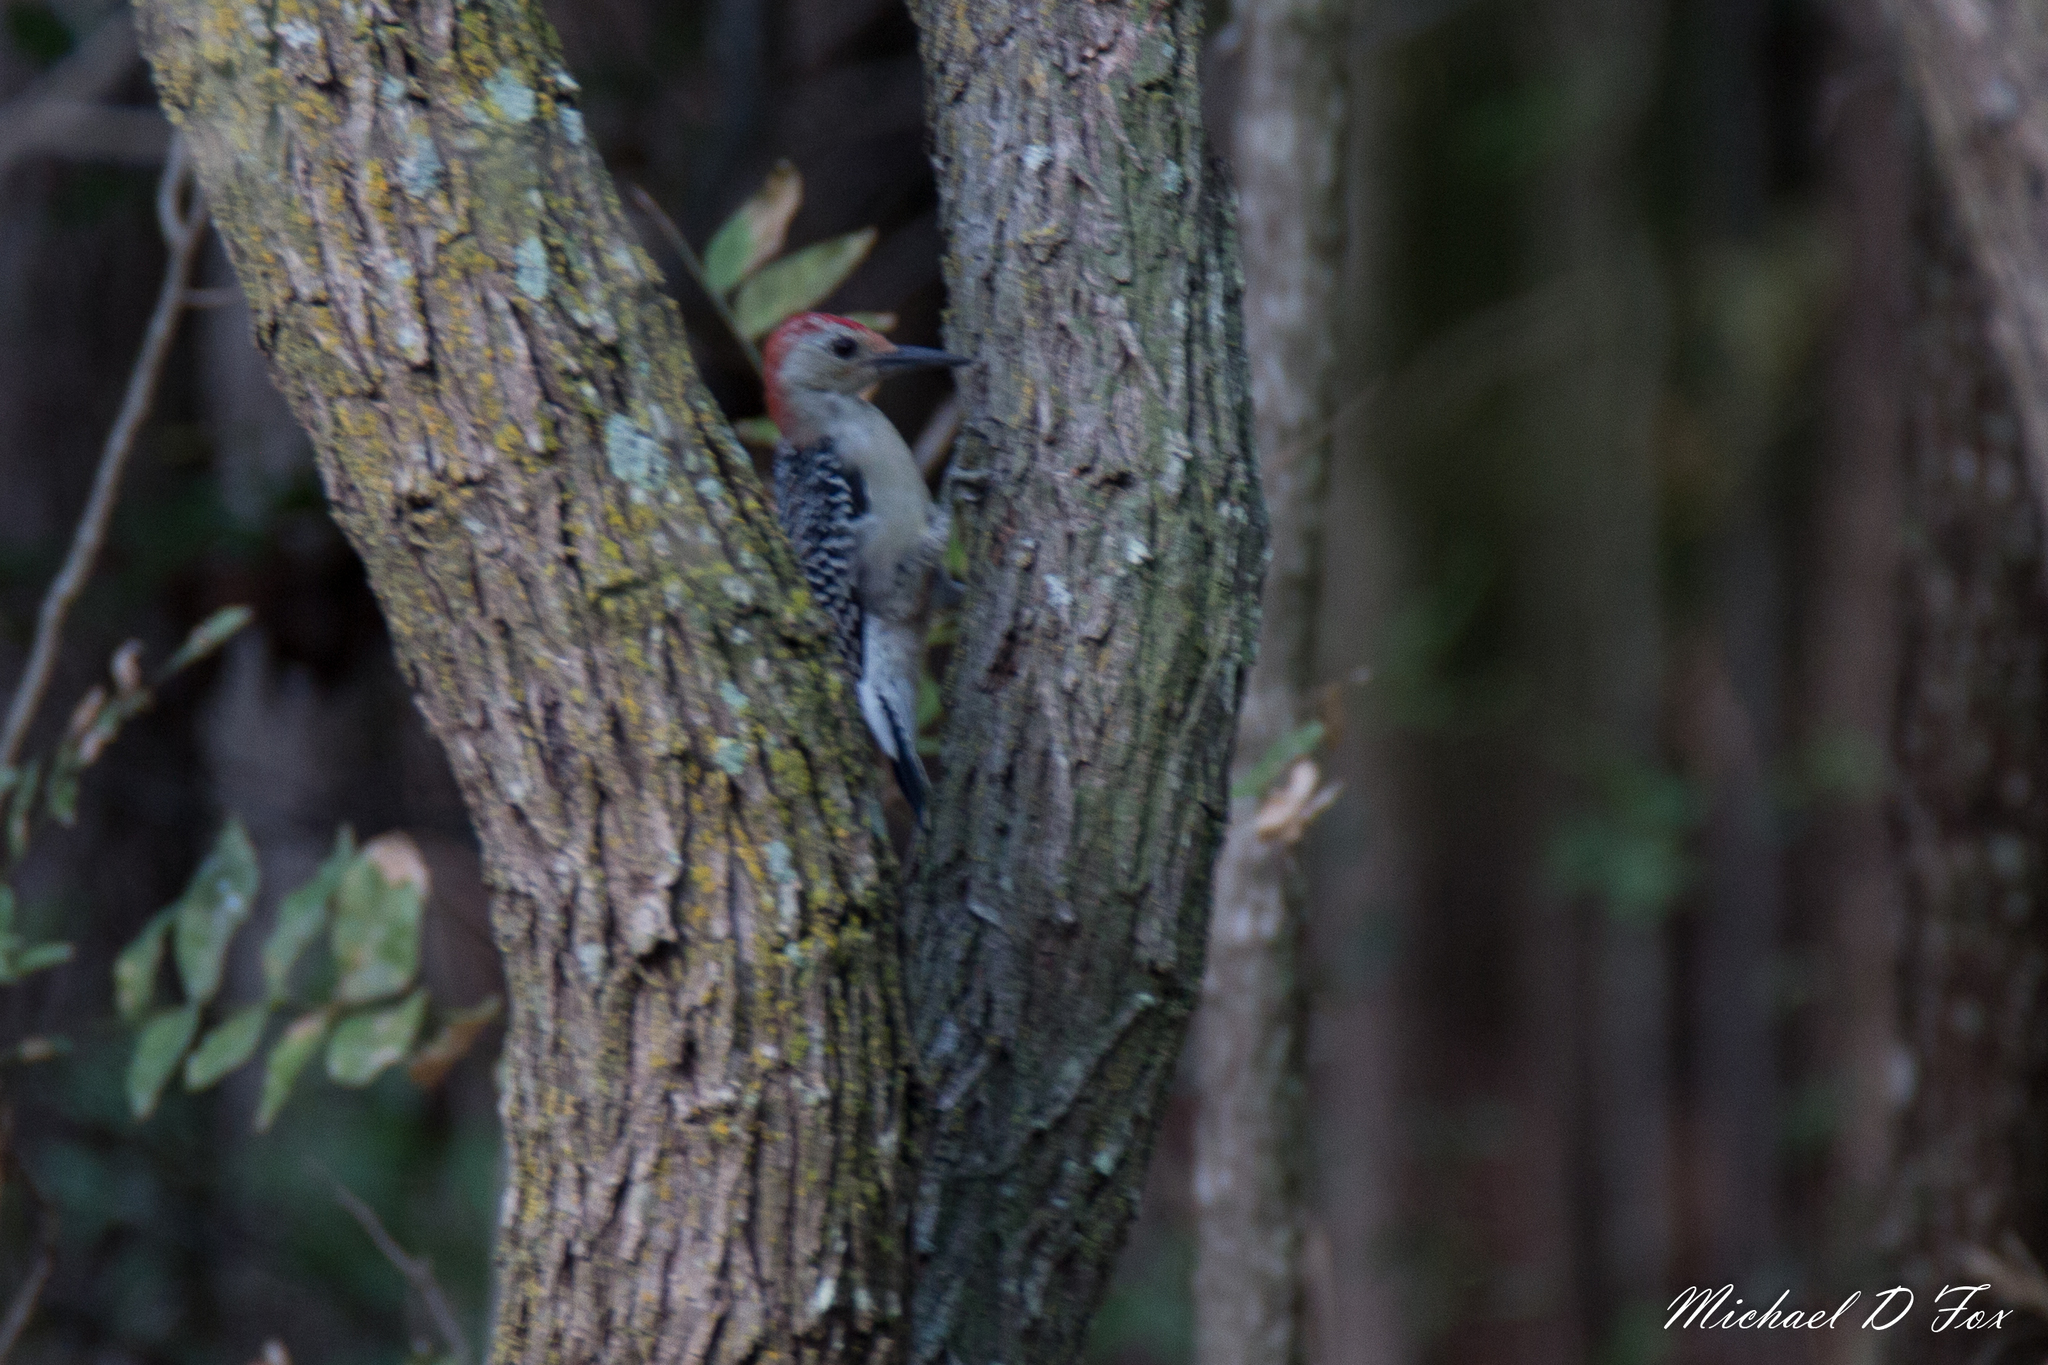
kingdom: Animalia
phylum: Chordata
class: Aves
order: Piciformes
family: Picidae
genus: Melanerpes
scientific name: Melanerpes carolinus
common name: Red-bellied woodpecker
